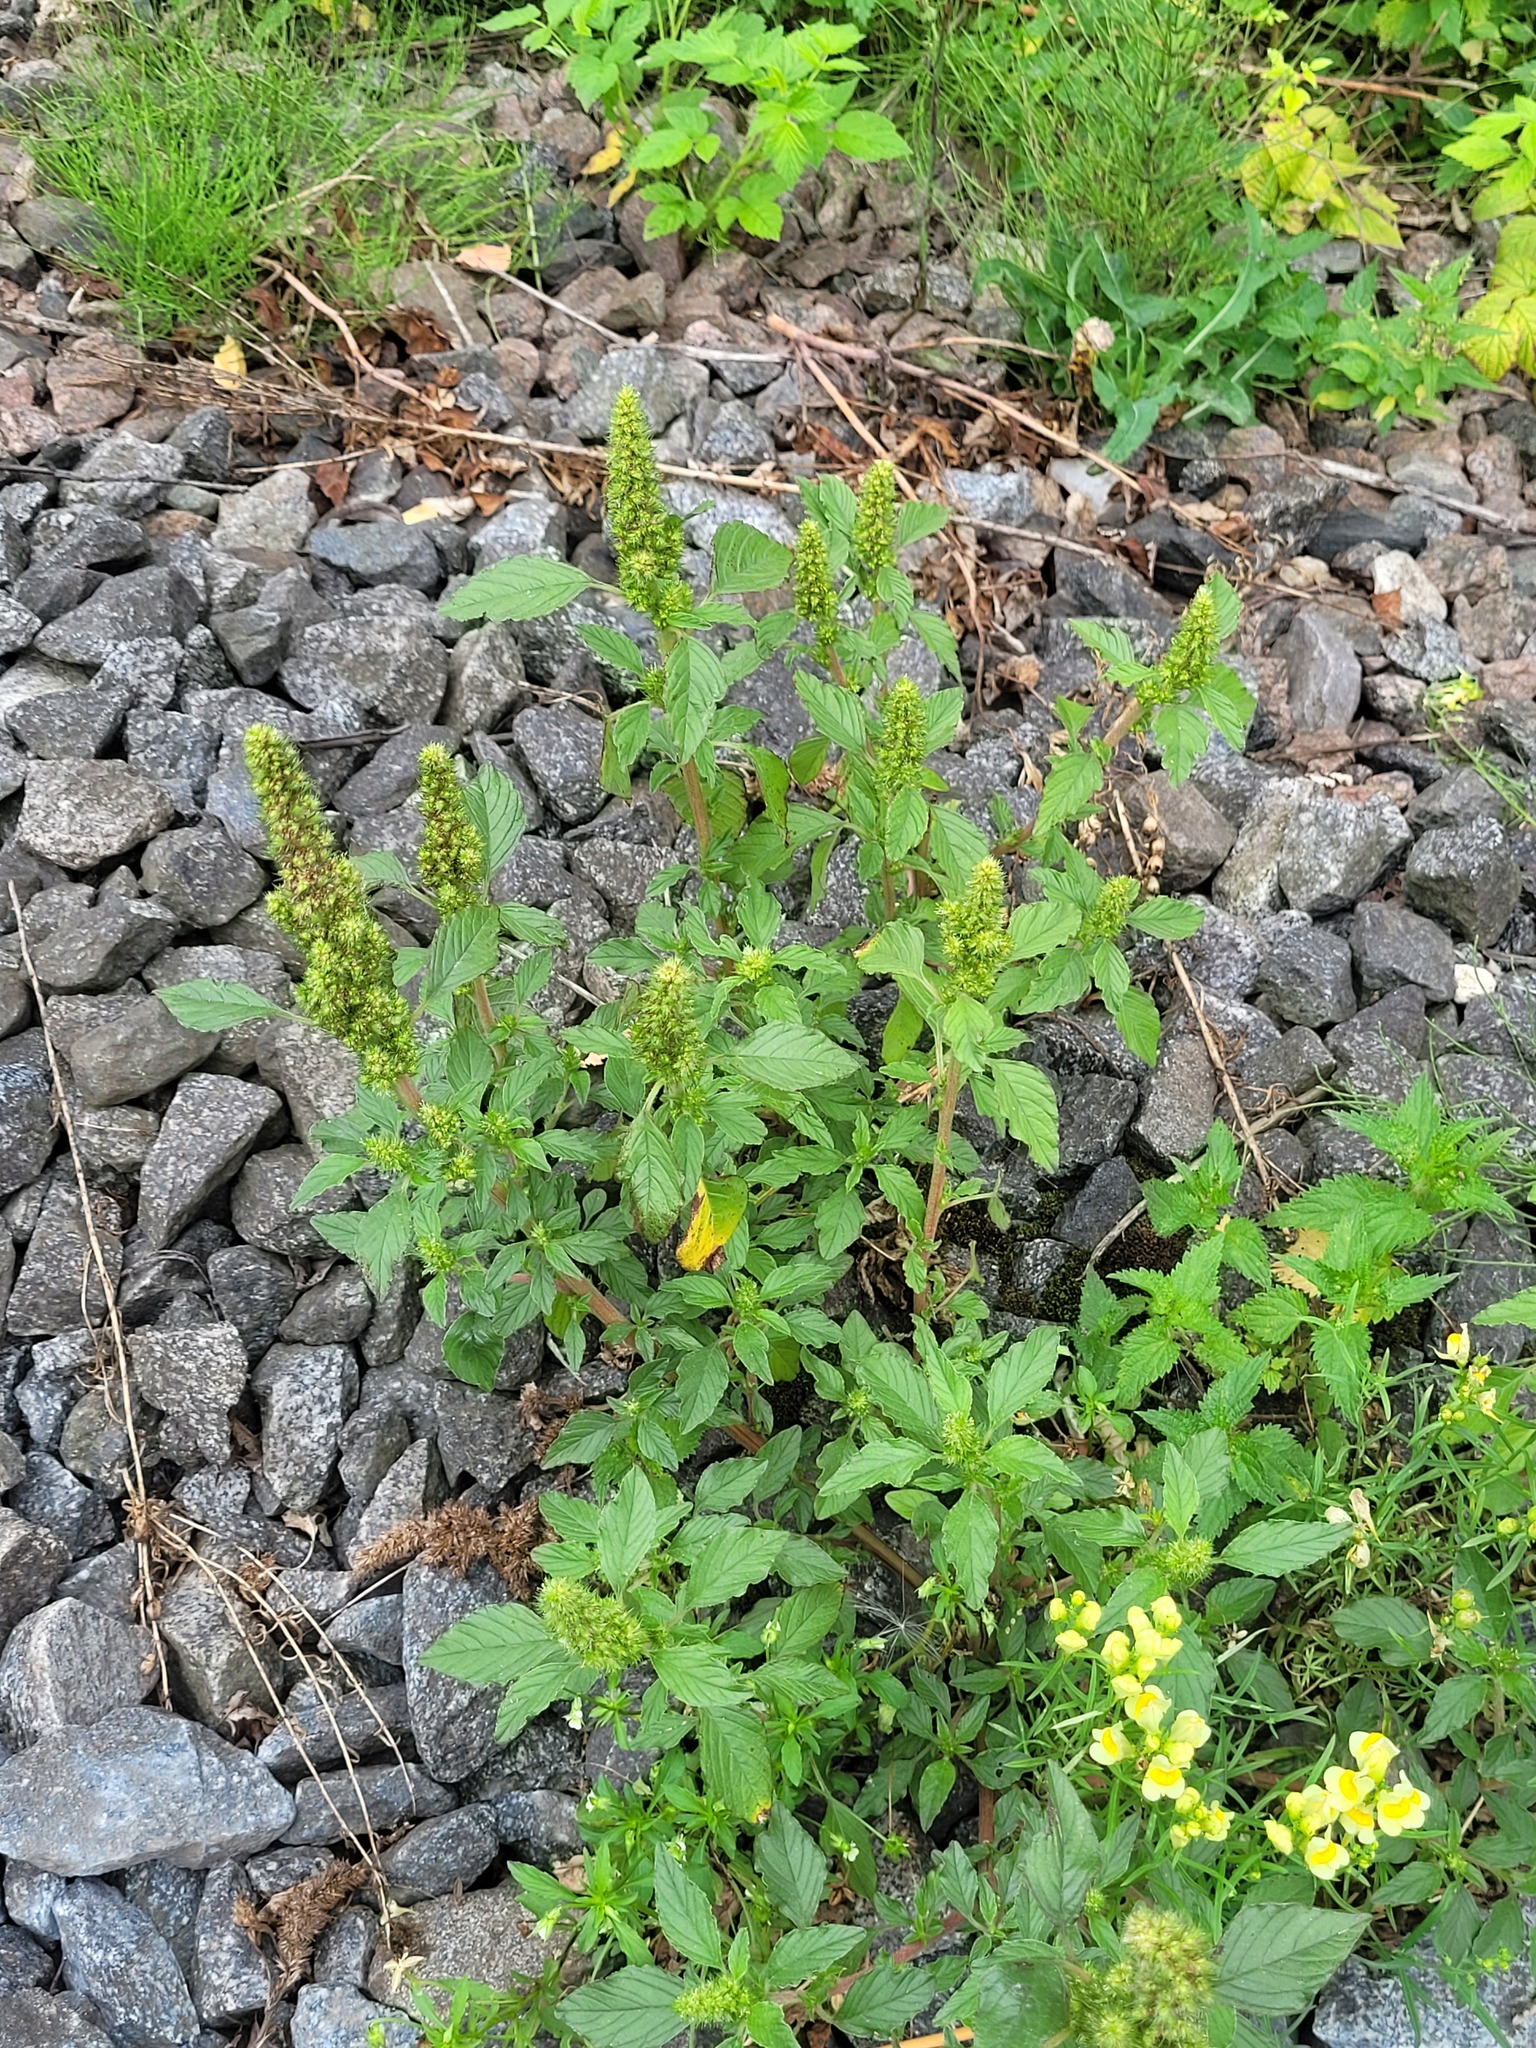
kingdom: Plantae
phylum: Tracheophyta
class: Magnoliopsida
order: Caryophyllales
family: Amaranthaceae
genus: Amaranthus
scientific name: Amaranthus retroflexus
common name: Redroot amaranth
